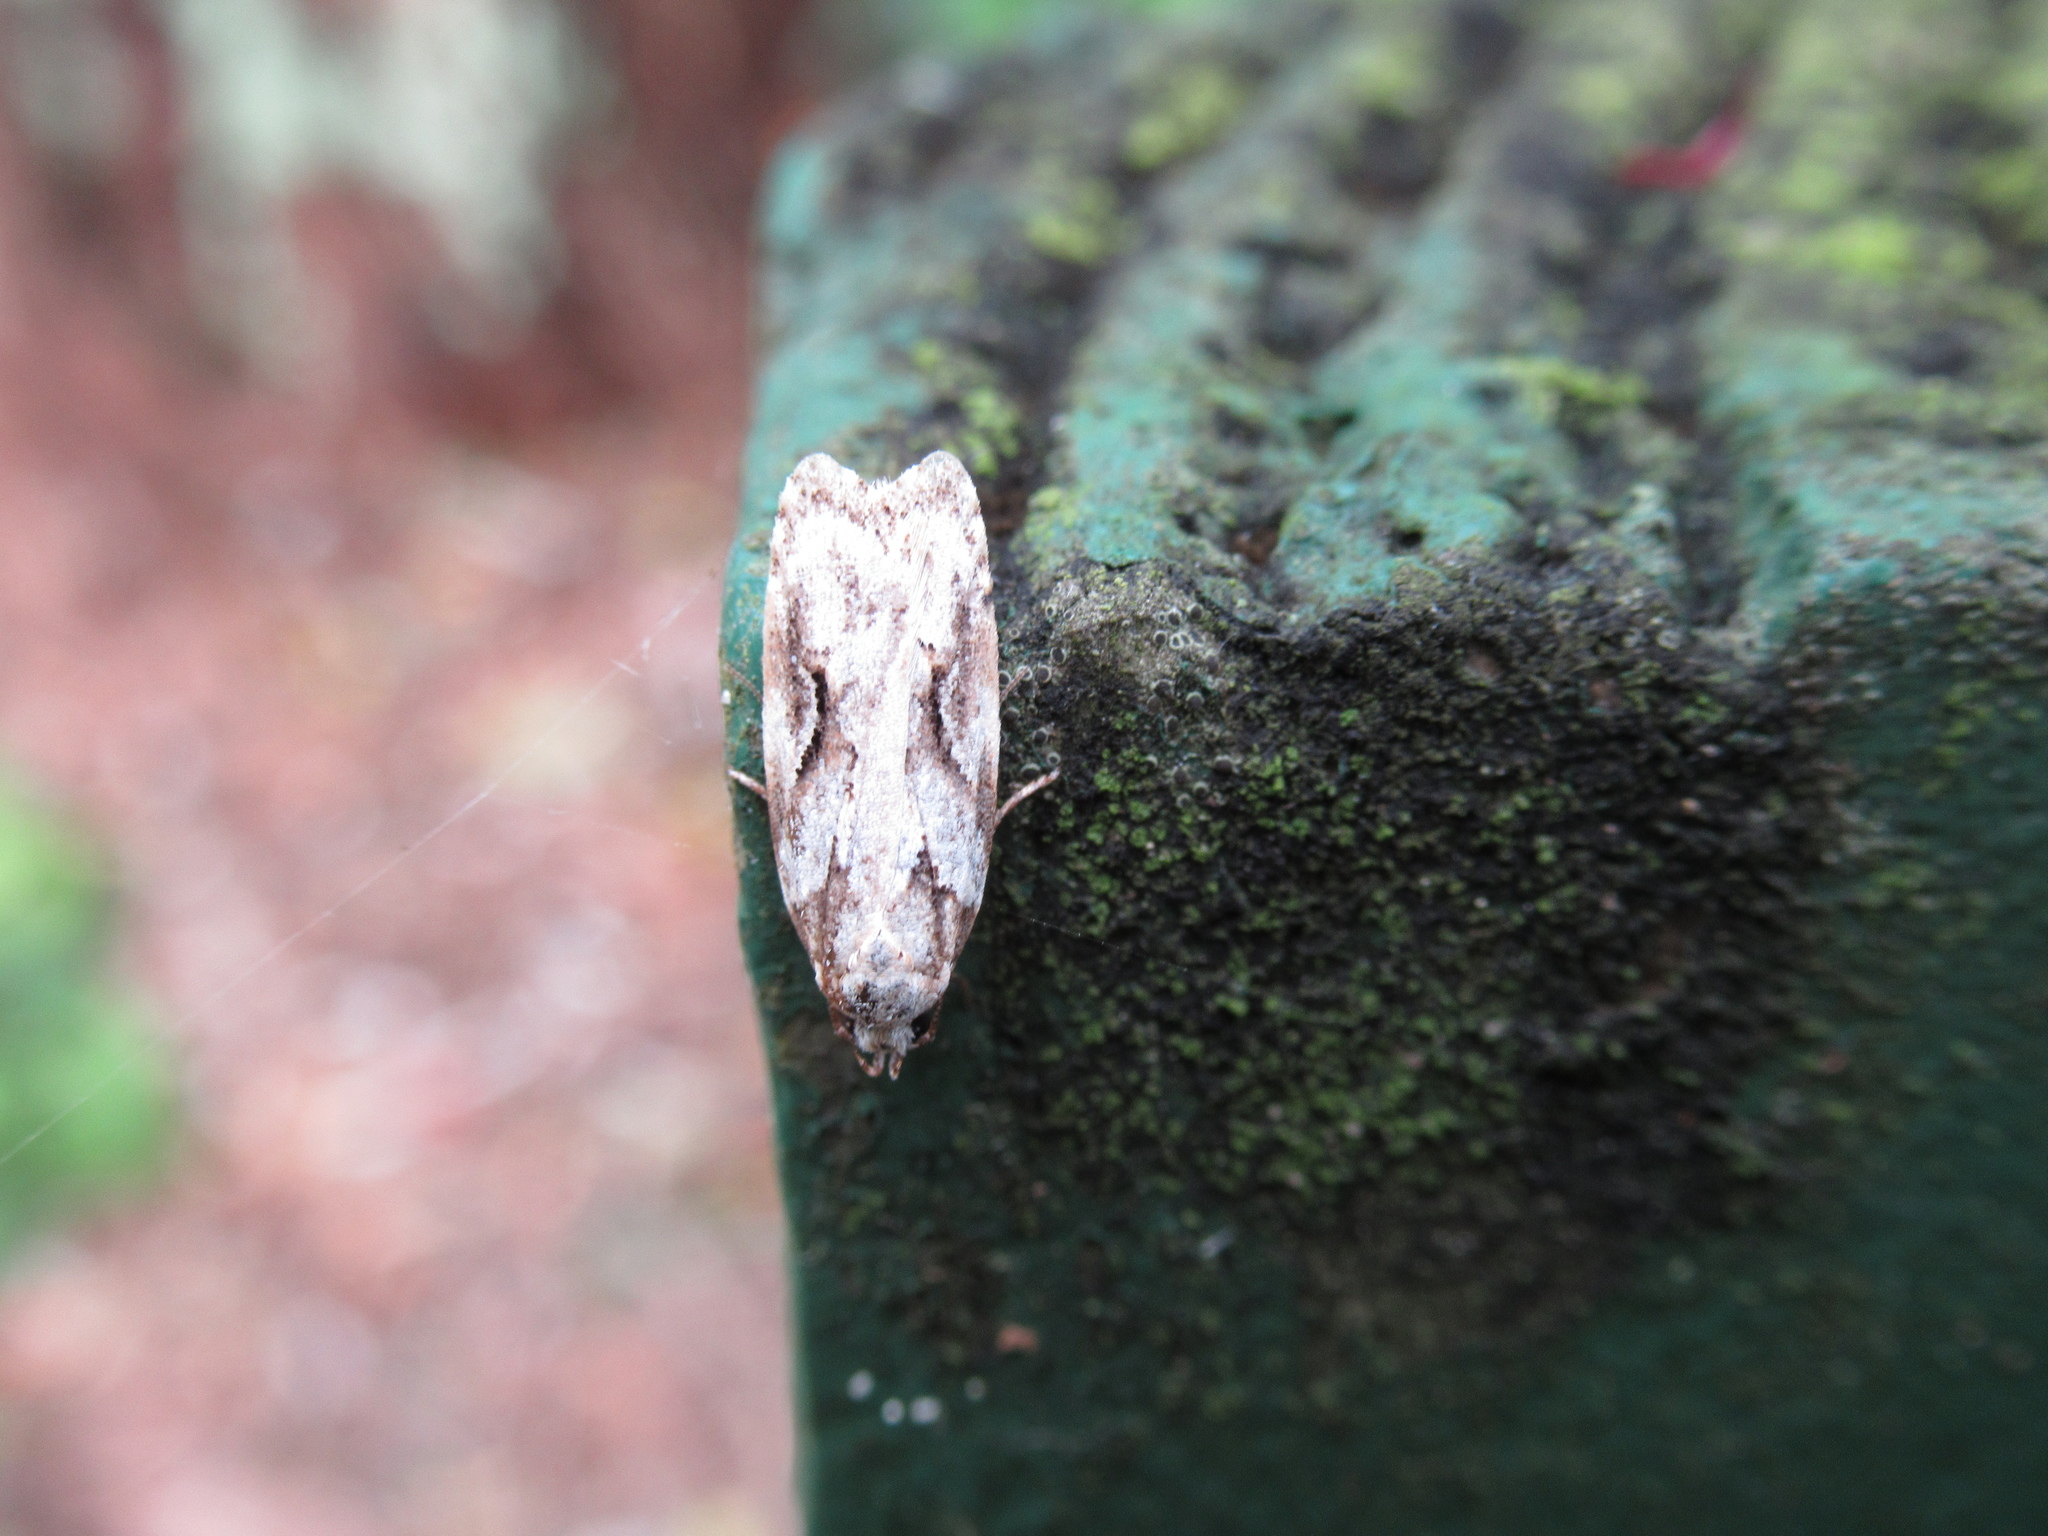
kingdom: Animalia
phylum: Arthropoda
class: Insecta
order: Lepidoptera
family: Oecophoridae
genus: Izatha
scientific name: Izatha mesoschista
